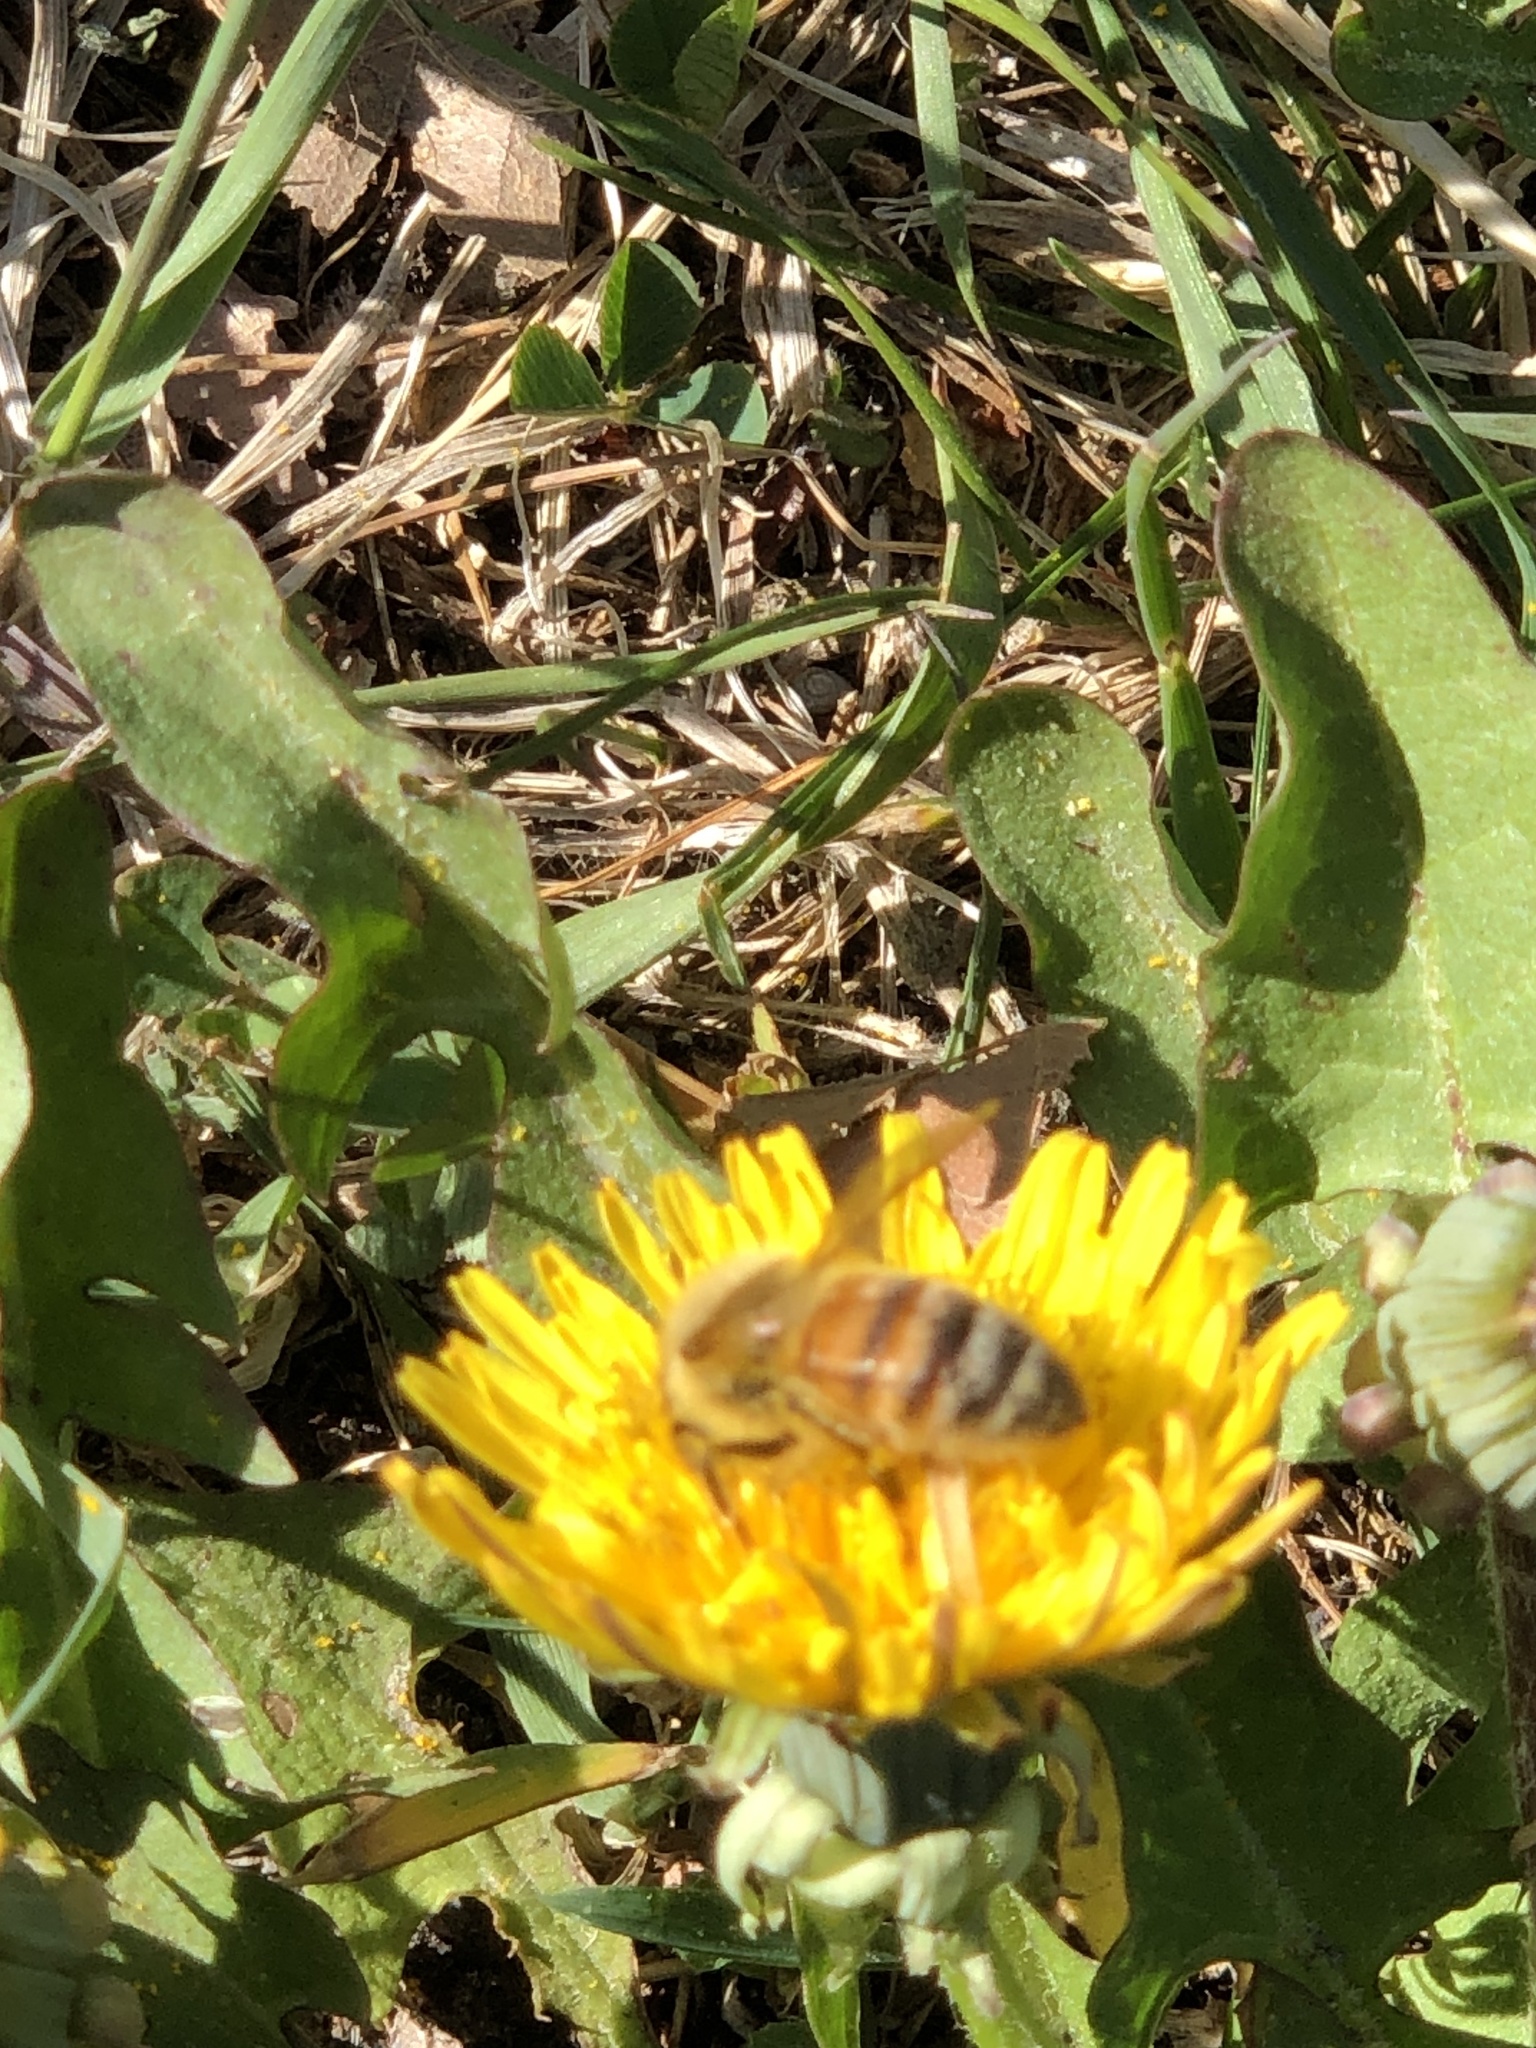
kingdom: Animalia
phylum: Arthropoda
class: Insecta
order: Hymenoptera
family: Apidae
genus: Apis
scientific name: Apis mellifera
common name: Honey bee
